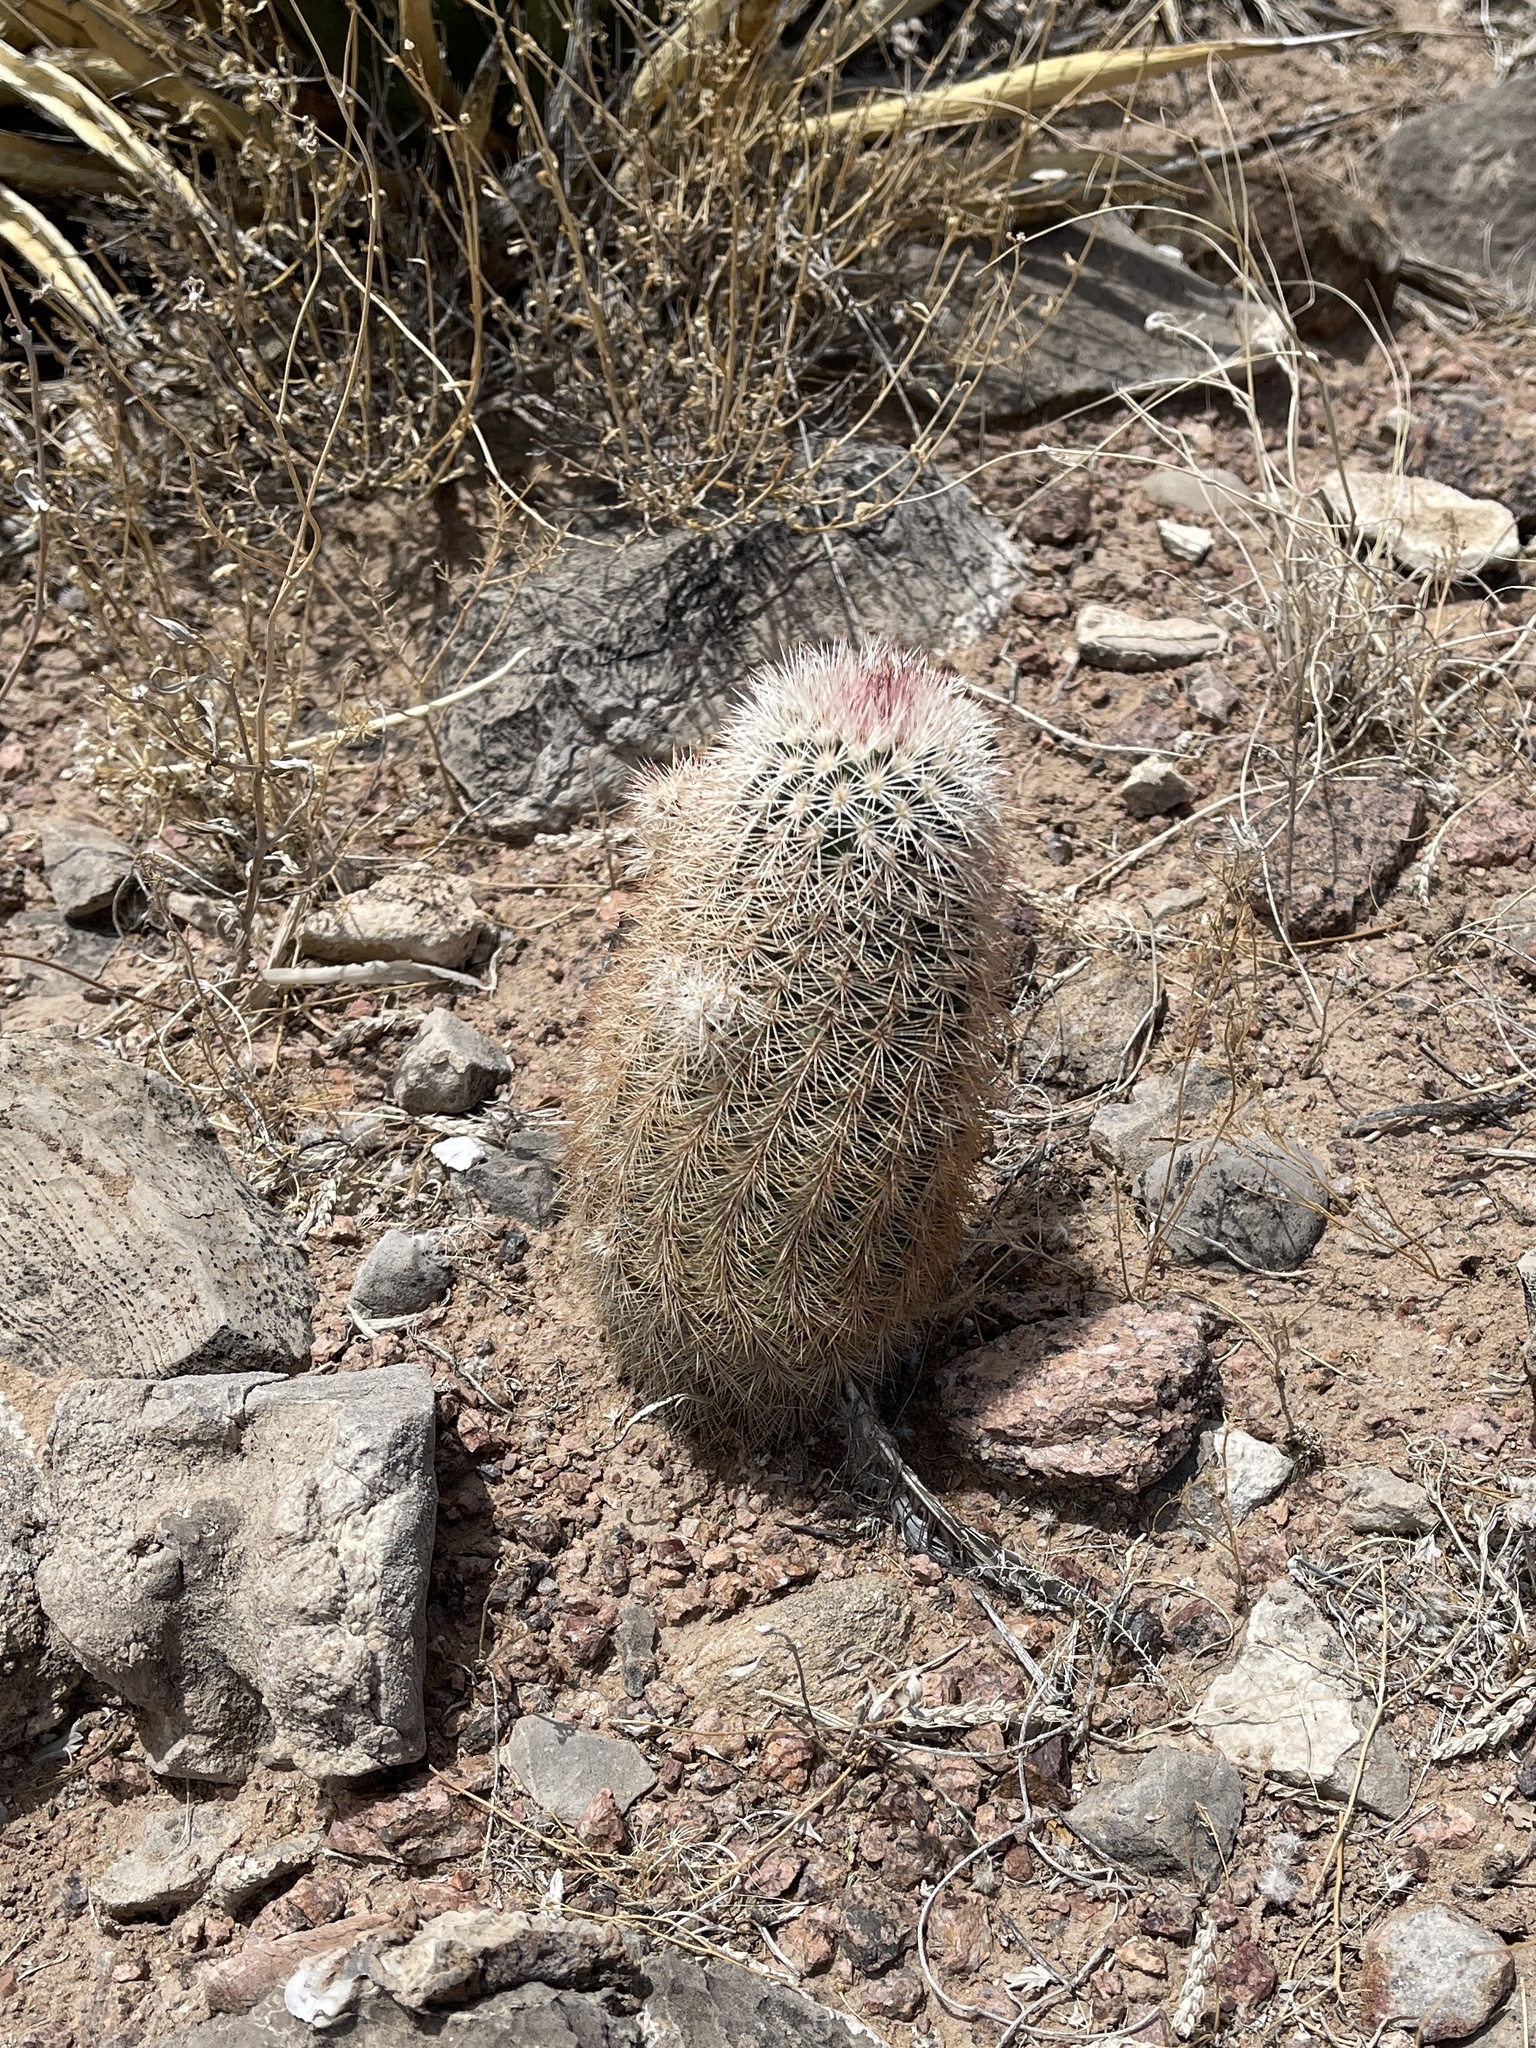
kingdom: Plantae
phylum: Tracheophyta
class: Magnoliopsida
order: Caryophyllales
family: Cactaceae
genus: Echinocereus
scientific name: Echinocereus dasyacanthus
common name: Spiny hedgehog cactus
